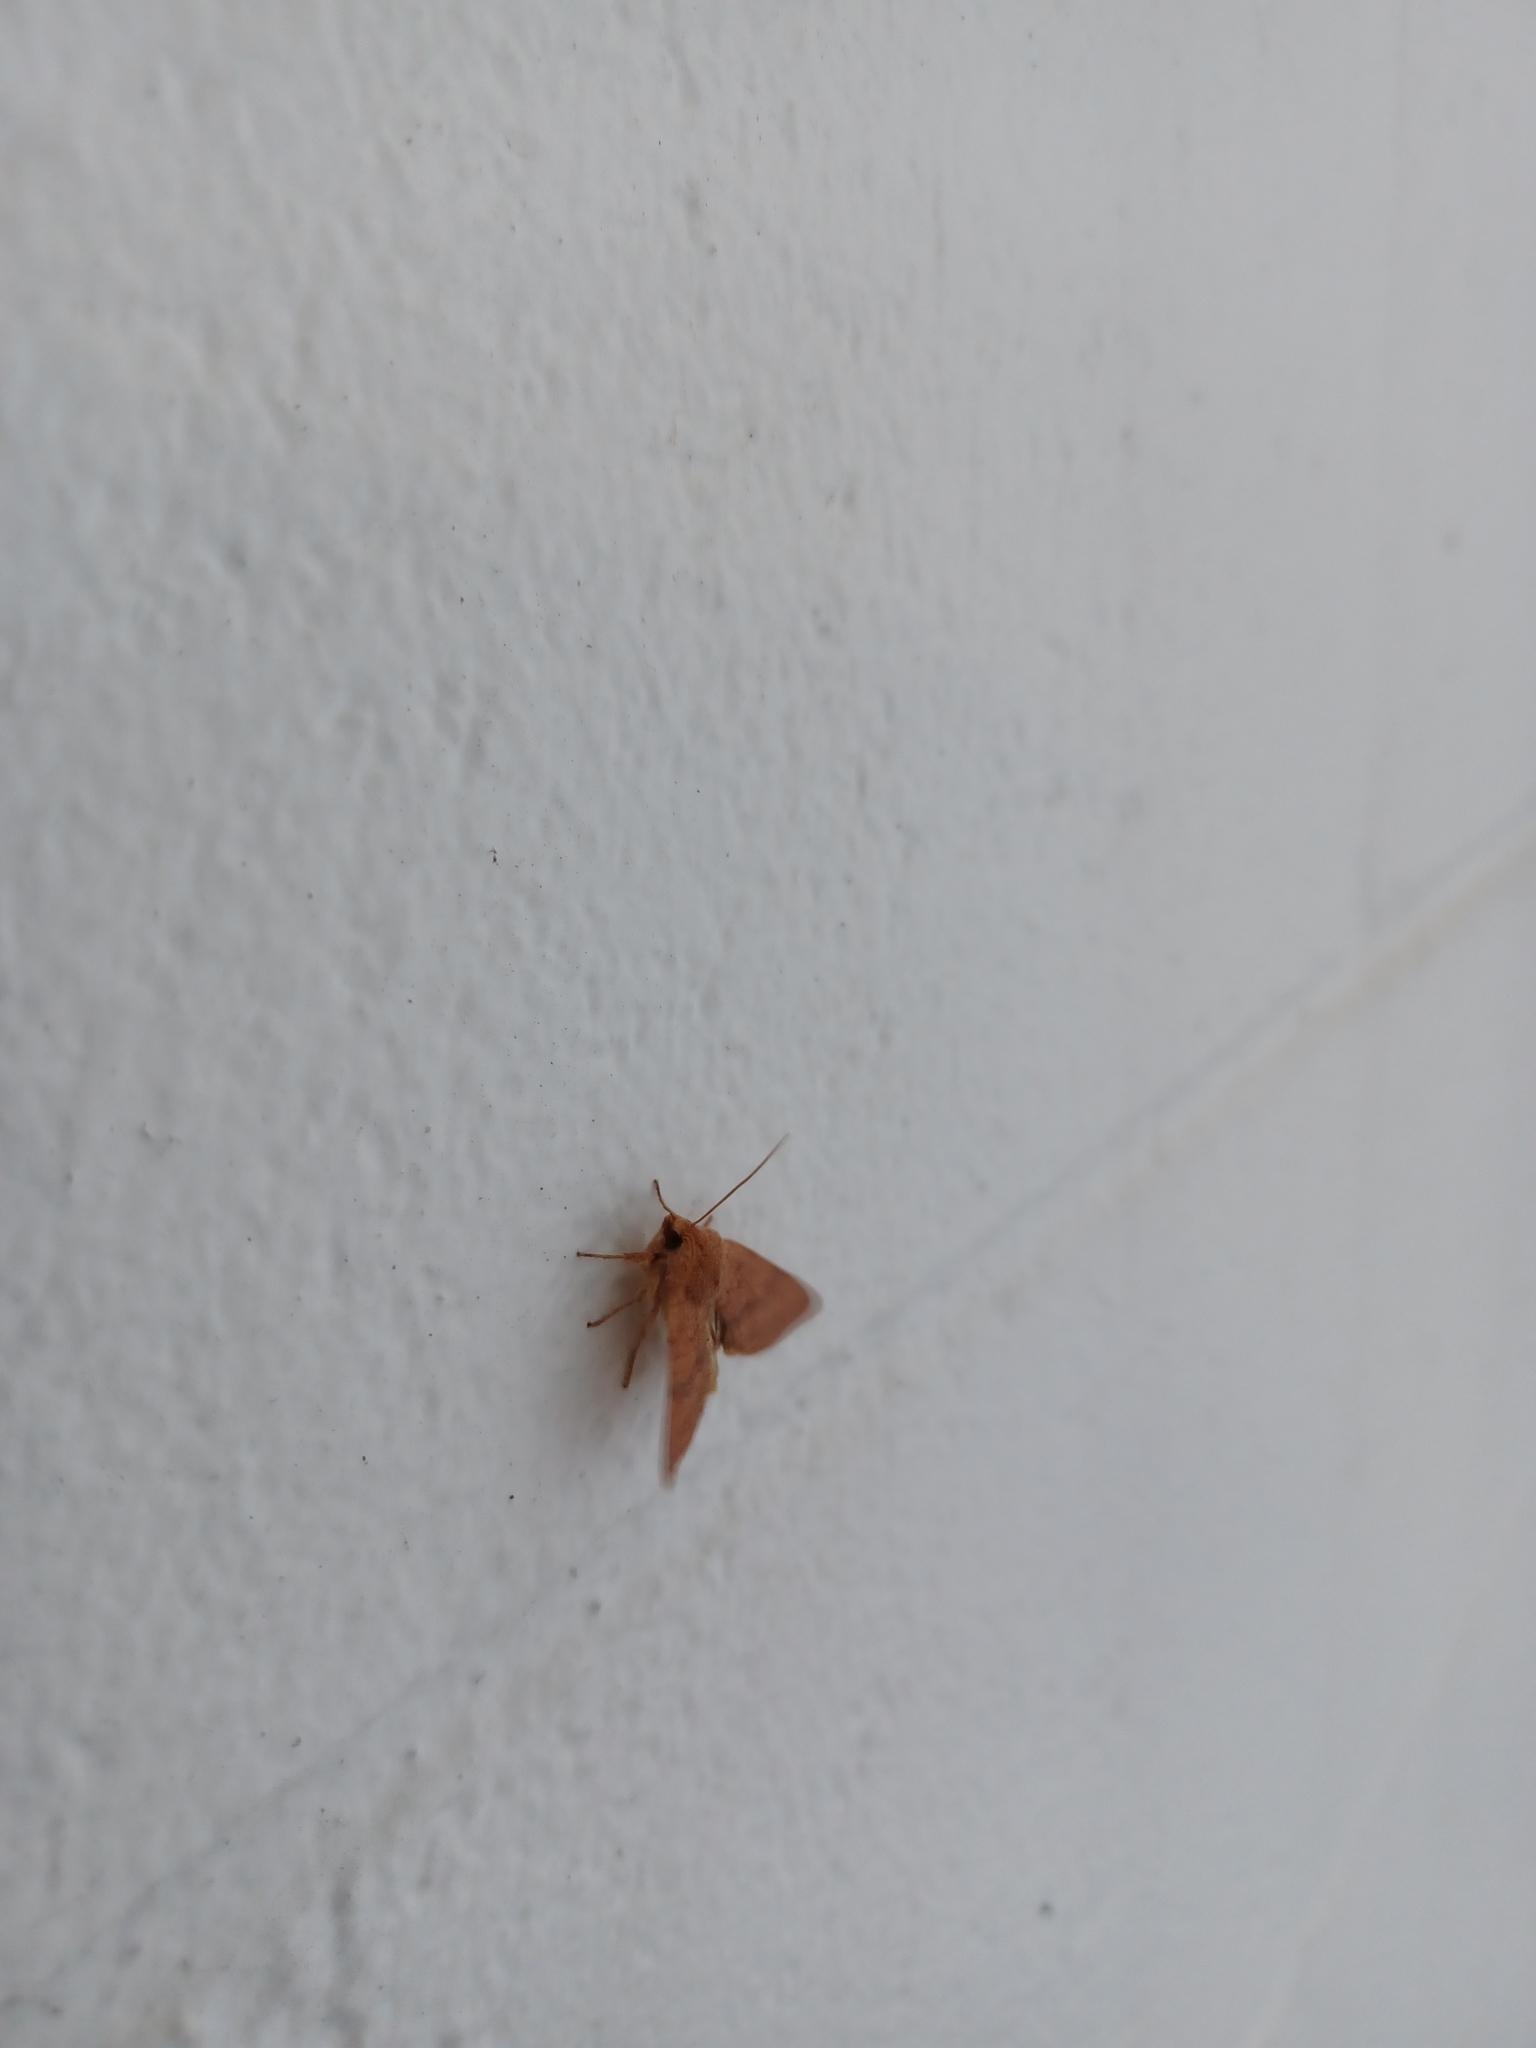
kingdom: Animalia
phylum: Arthropoda
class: Insecta
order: Lepidoptera
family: Noctuidae
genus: Agrochola
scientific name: Agrochola bicolorago
